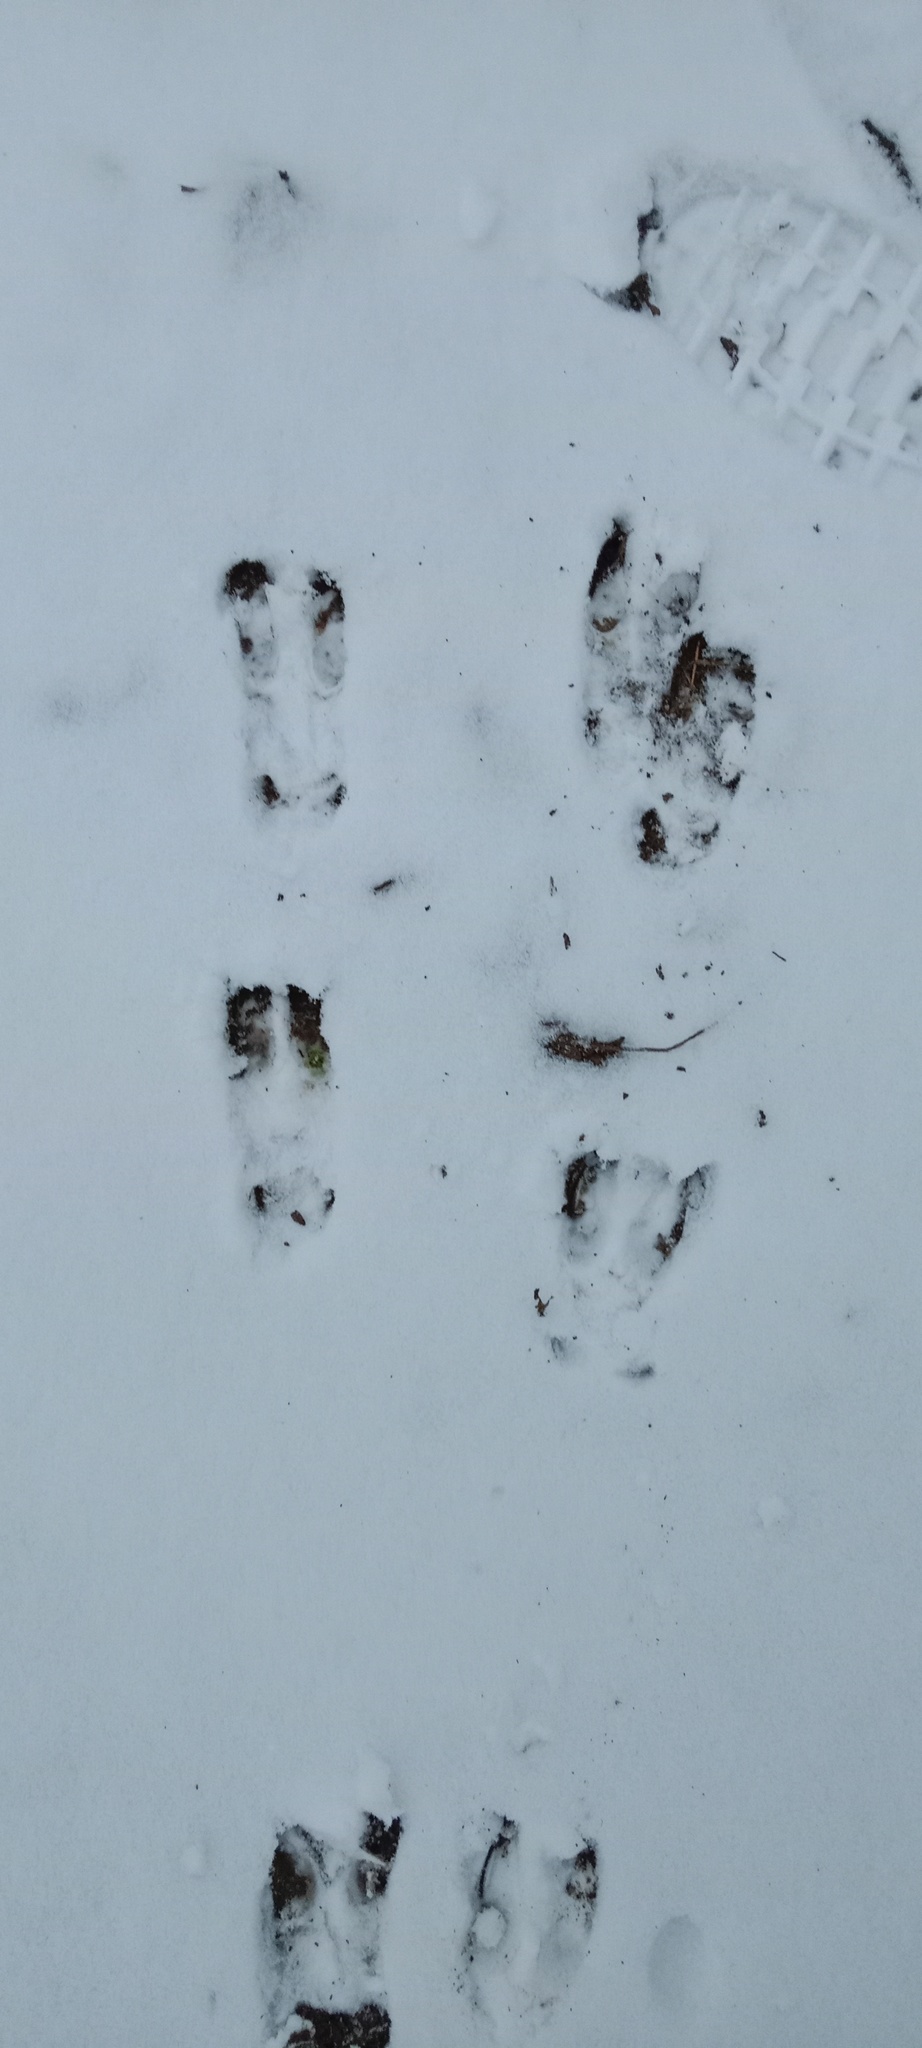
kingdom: Animalia
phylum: Chordata
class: Mammalia
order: Artiodactyla
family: Cervidae
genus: Capreolus
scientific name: Capreolus capreolus
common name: Western roe deer
